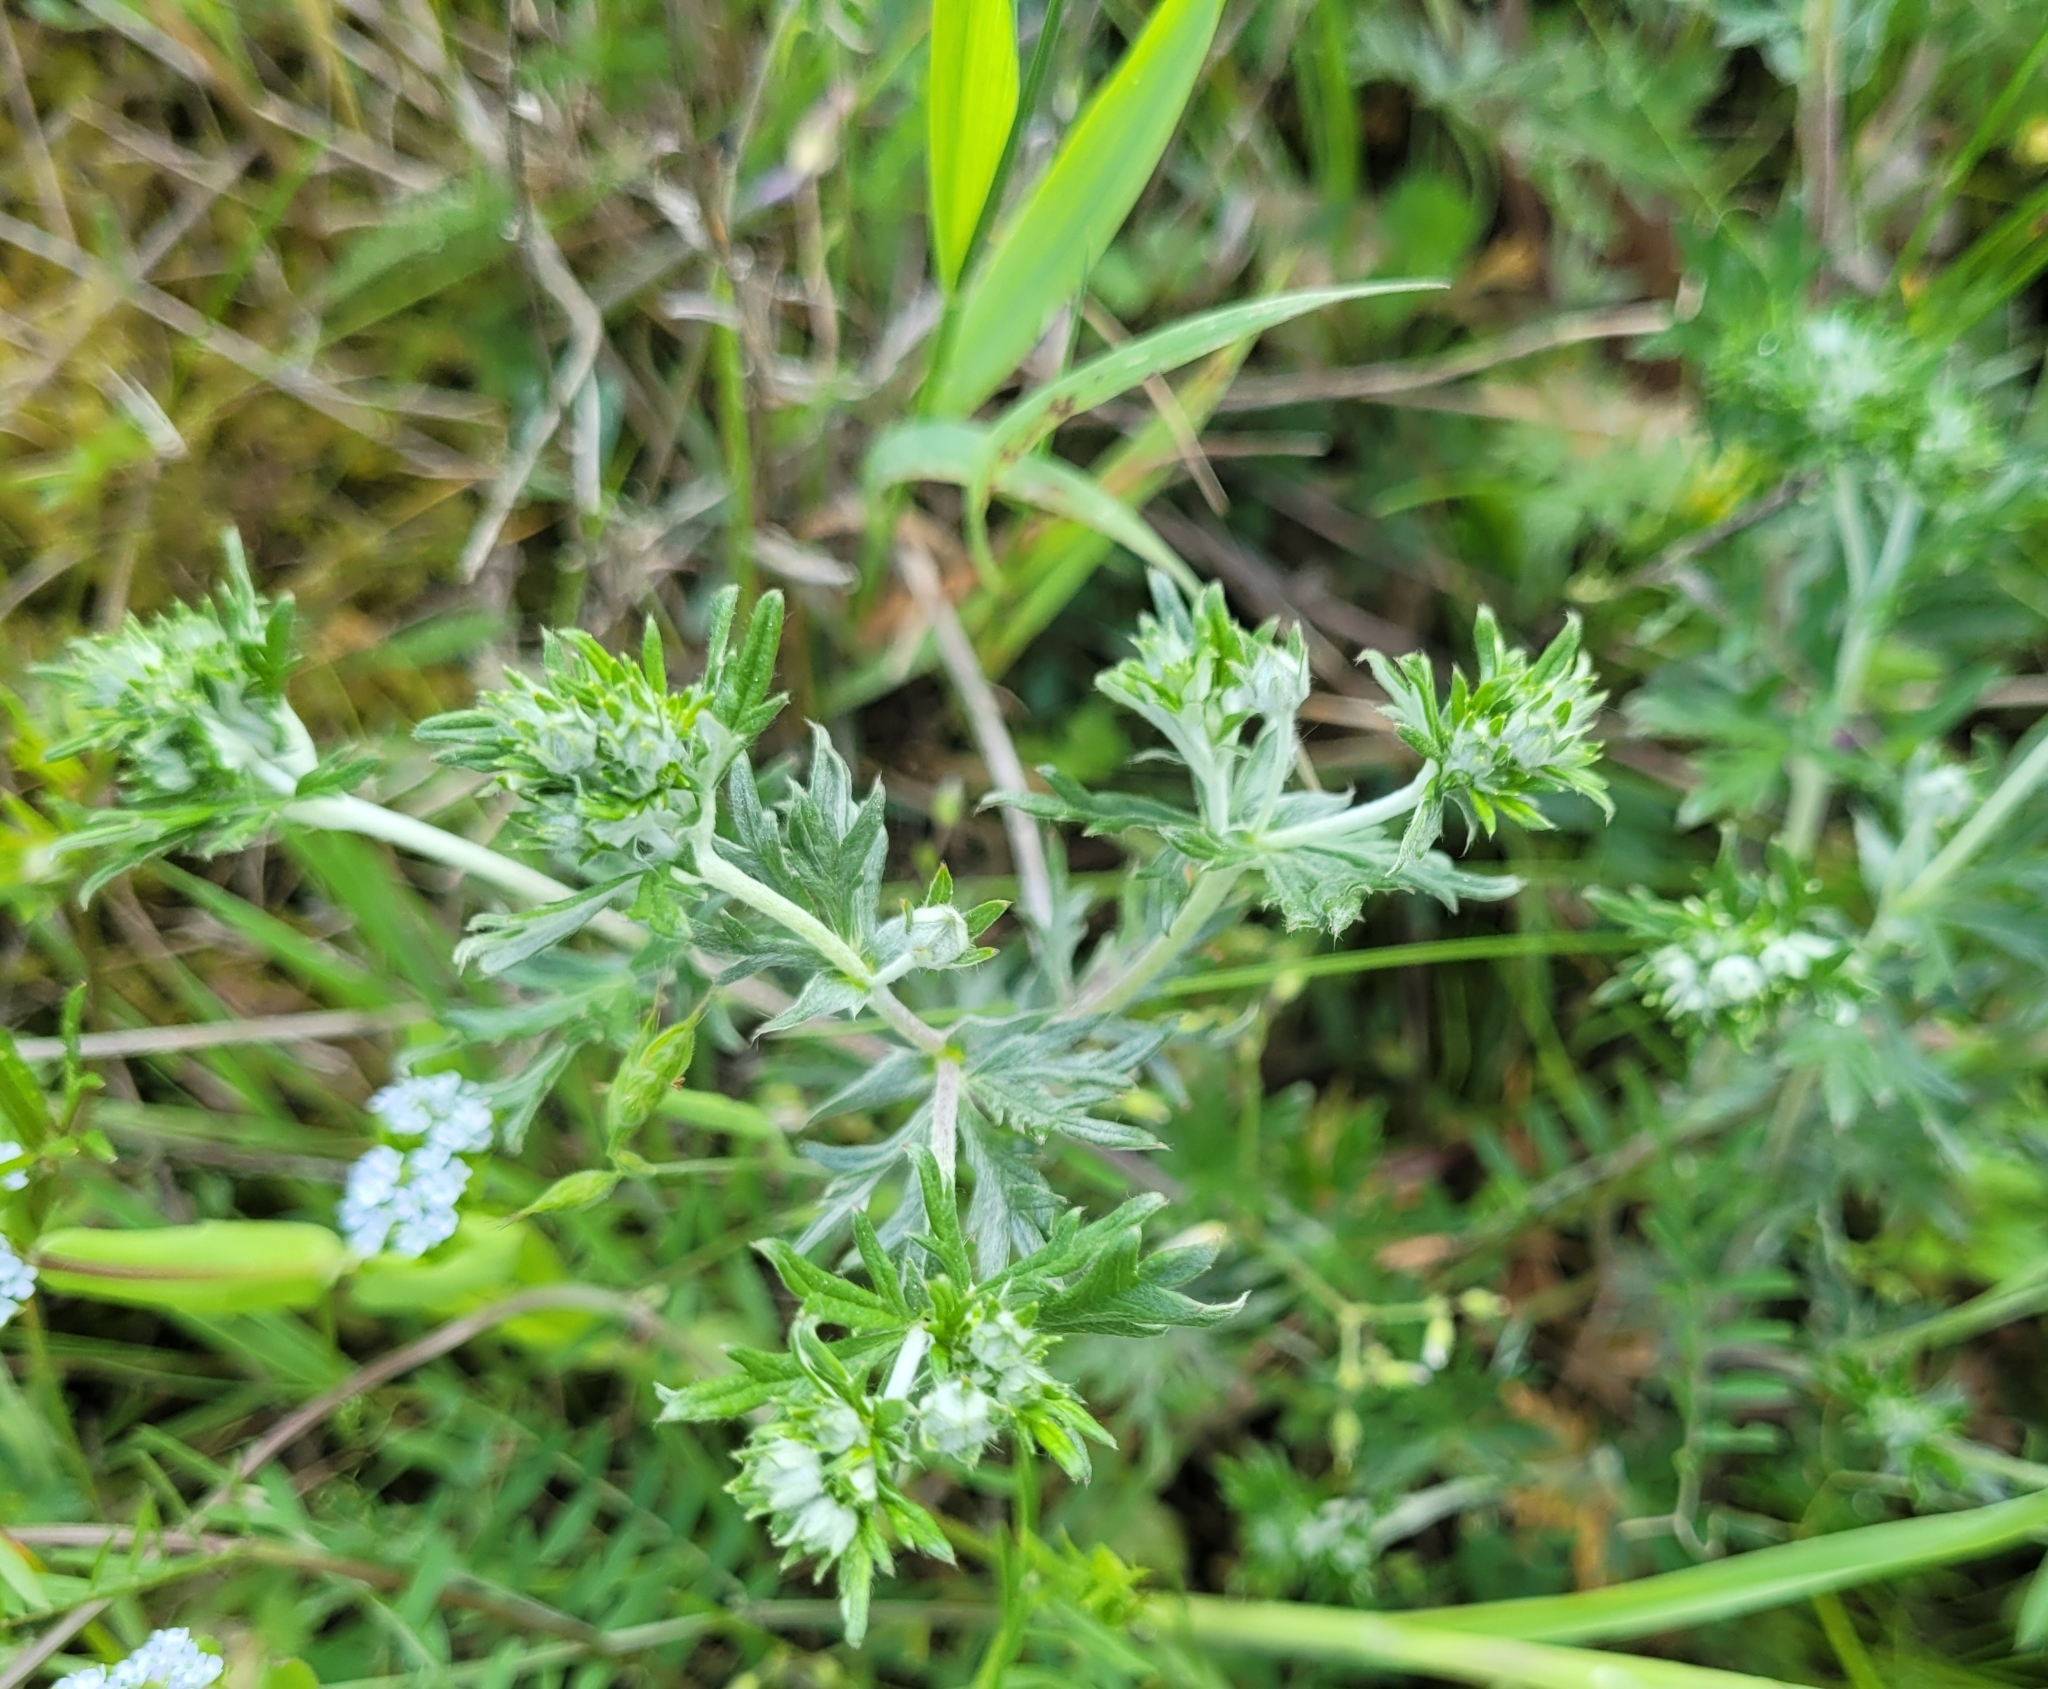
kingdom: Plantae
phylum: Tracheophyta
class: Magnoliopsida
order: Rosales
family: Rosaceae
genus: Potentilla
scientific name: Potentilla argentea
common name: Hoary cinquefoil
